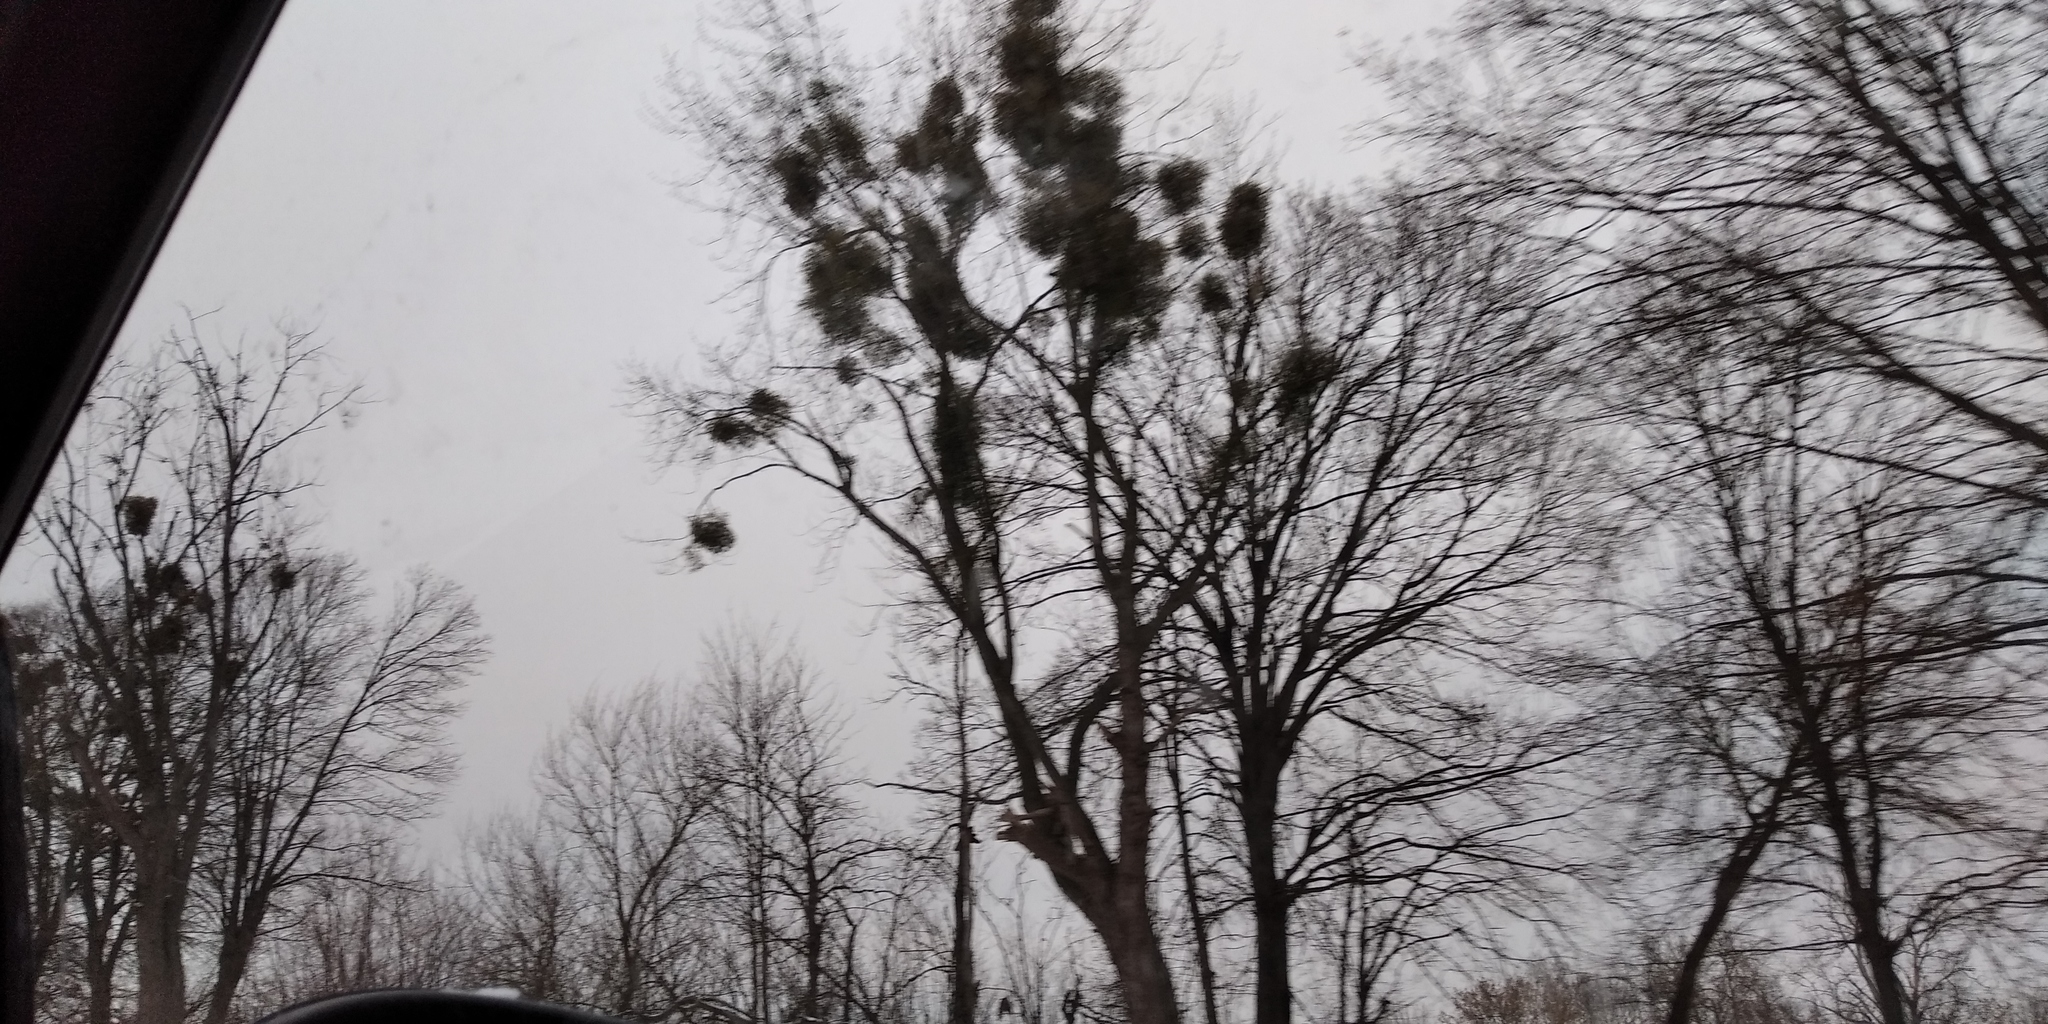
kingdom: Plantae
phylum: Tracheophyta
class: Magnoliopsida
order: Santalales
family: Viscaceae
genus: Viscum
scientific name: Viscum album
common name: Mistletoe
